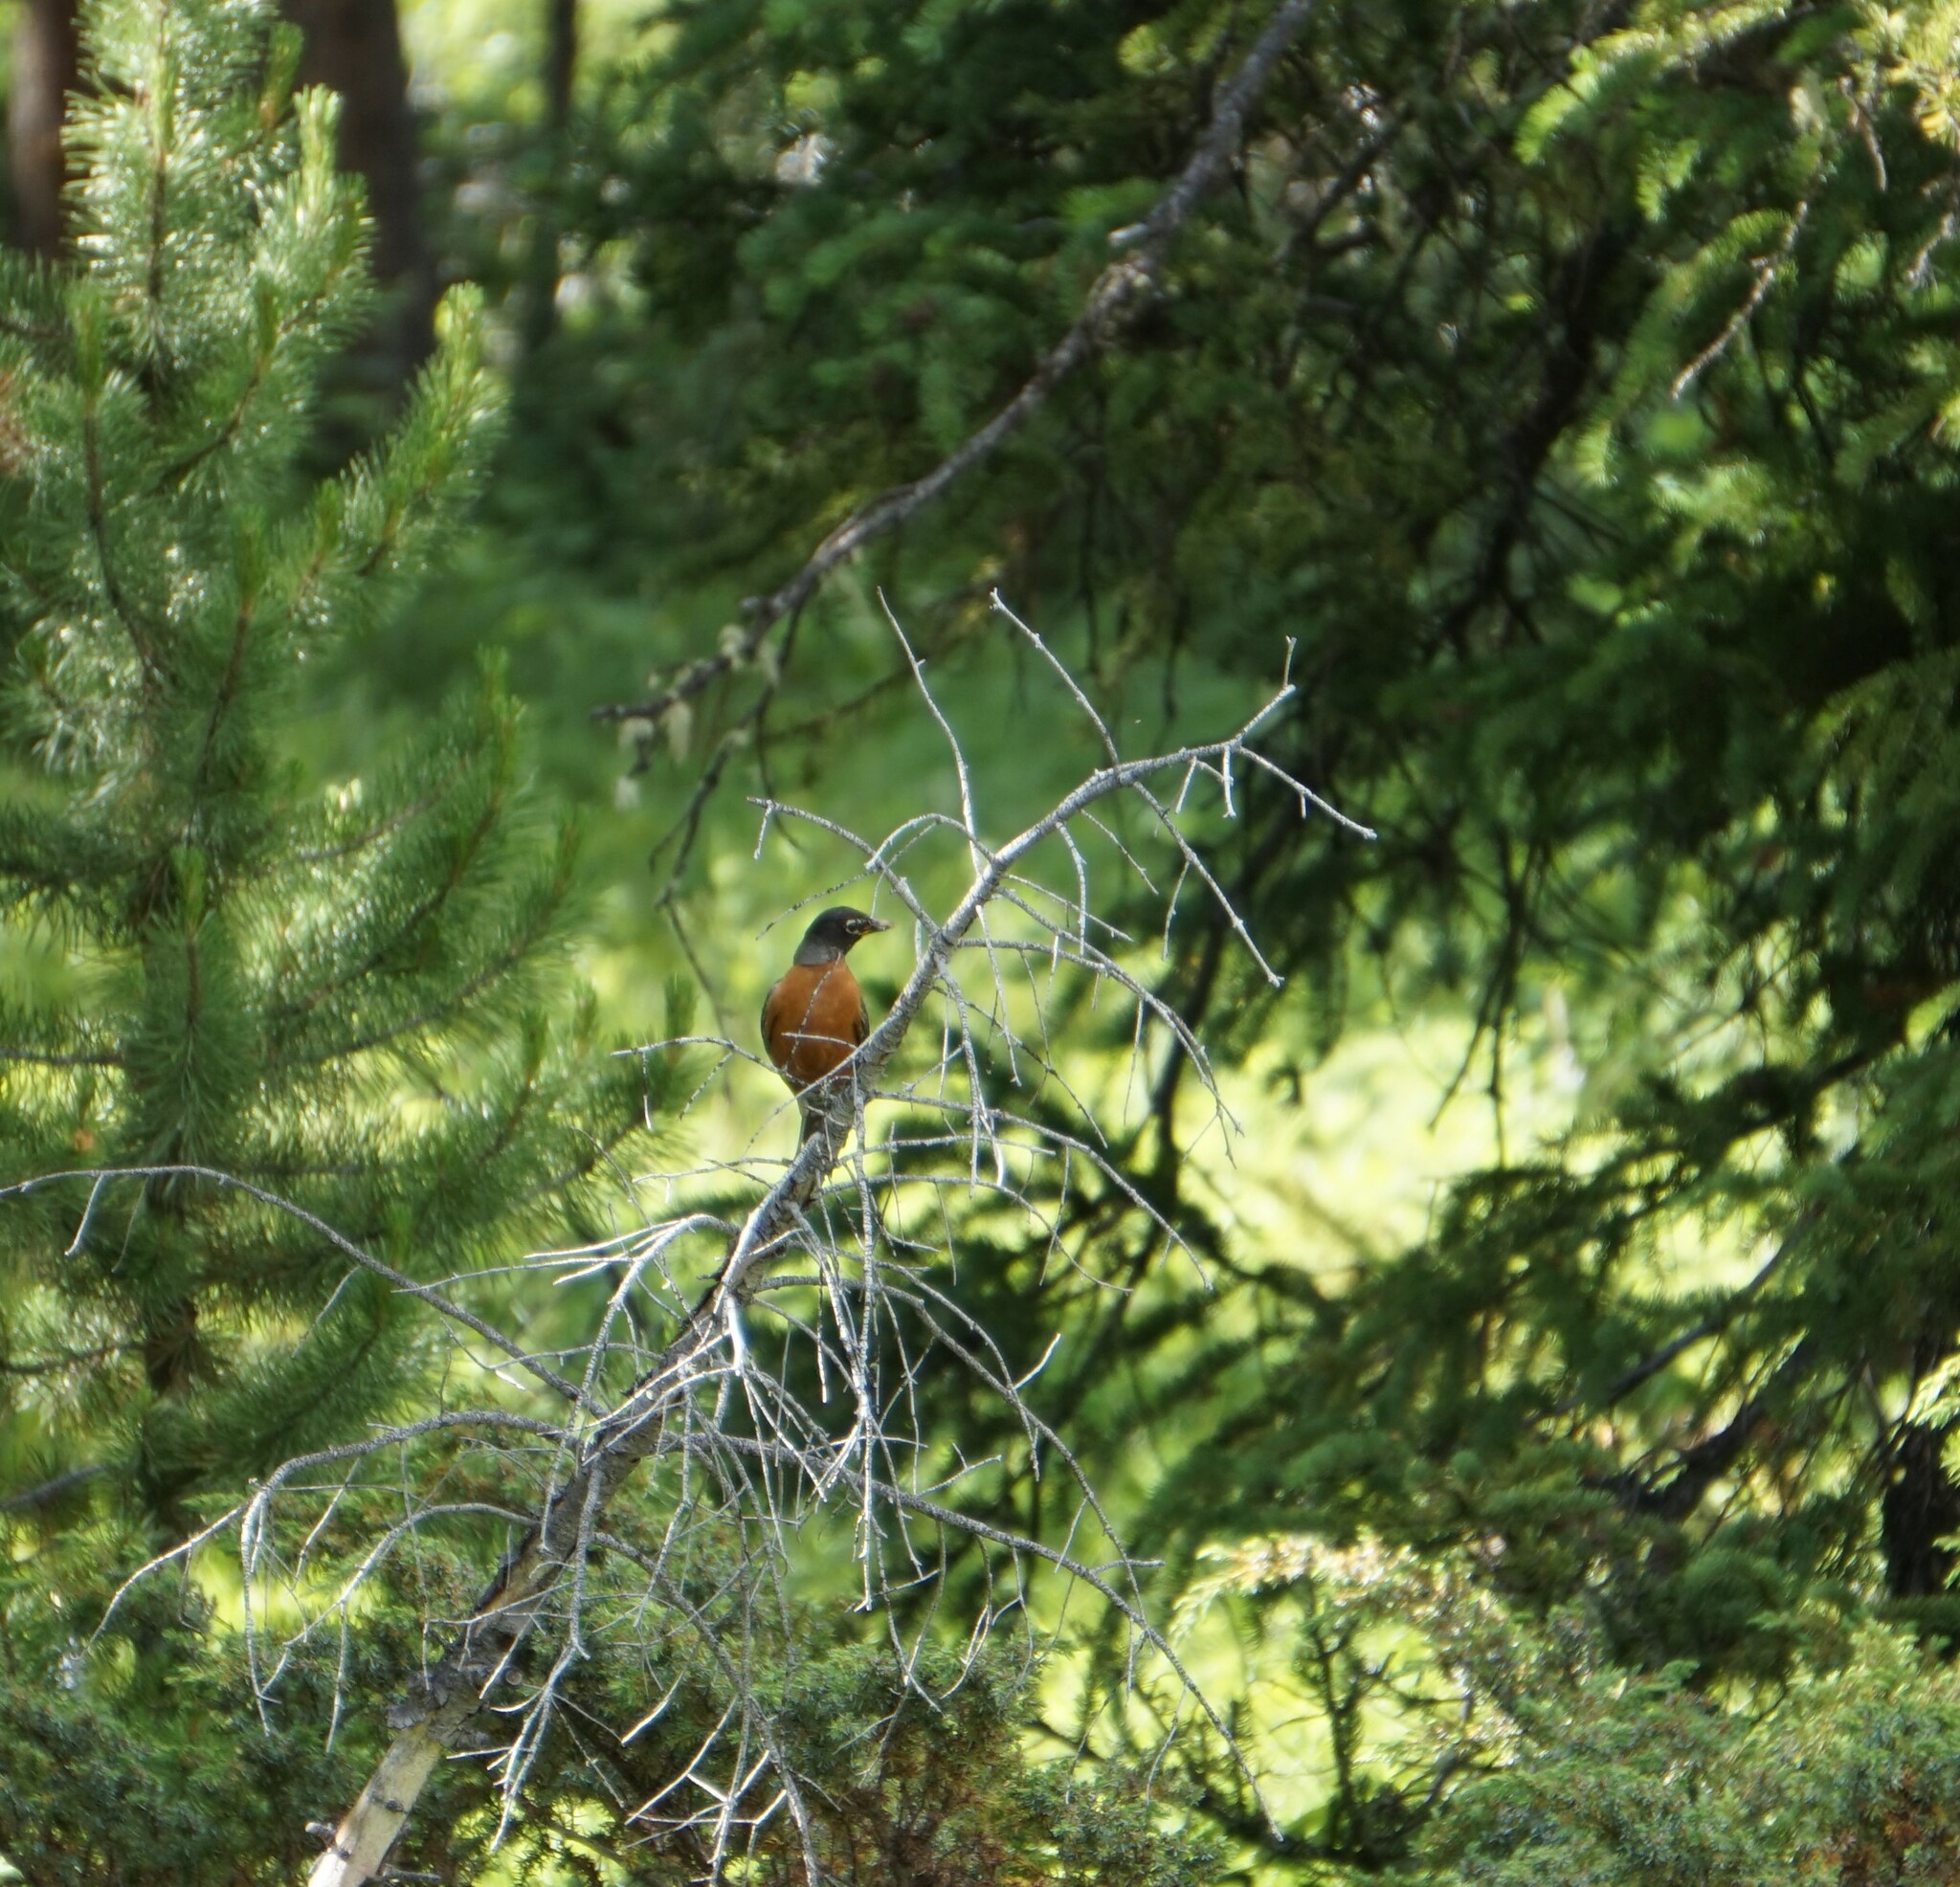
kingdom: Animalia
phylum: Chordata
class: Aves
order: Passeriformes
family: Turdidae
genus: Turdus
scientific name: Turdus migratorius
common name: American robin
